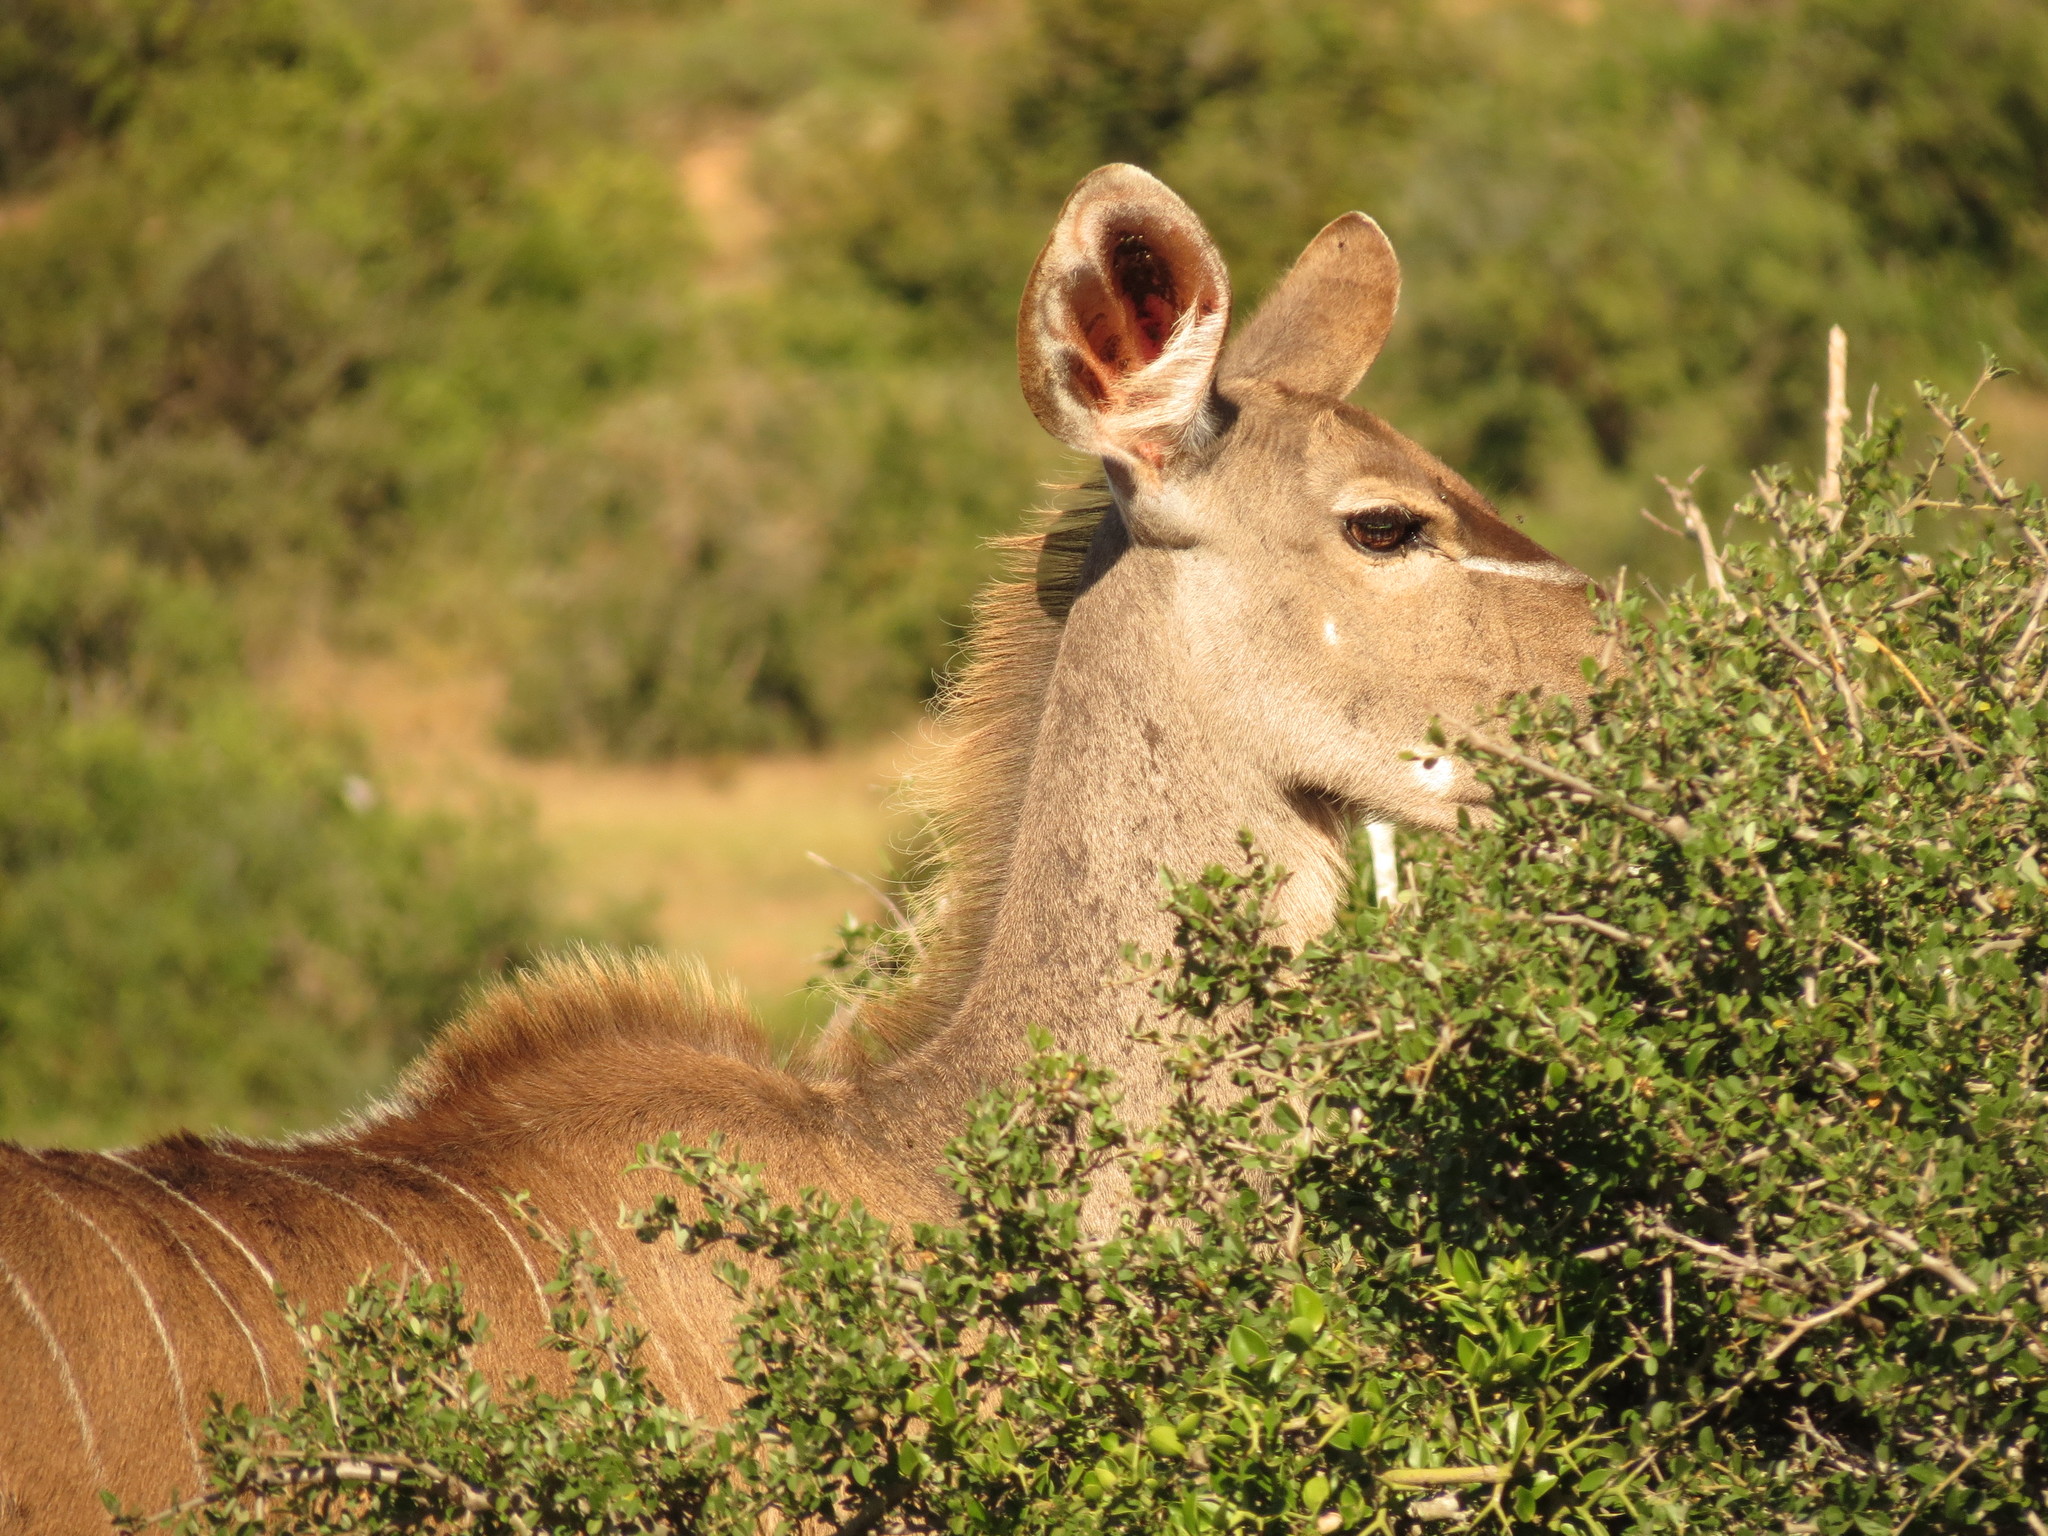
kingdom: Animalia
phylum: Chordata
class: Mammalia
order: Artiodactyla
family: Bovidae
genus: Tragelaphus
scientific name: Tragelaphus strepsiceros
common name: Greater kudu
